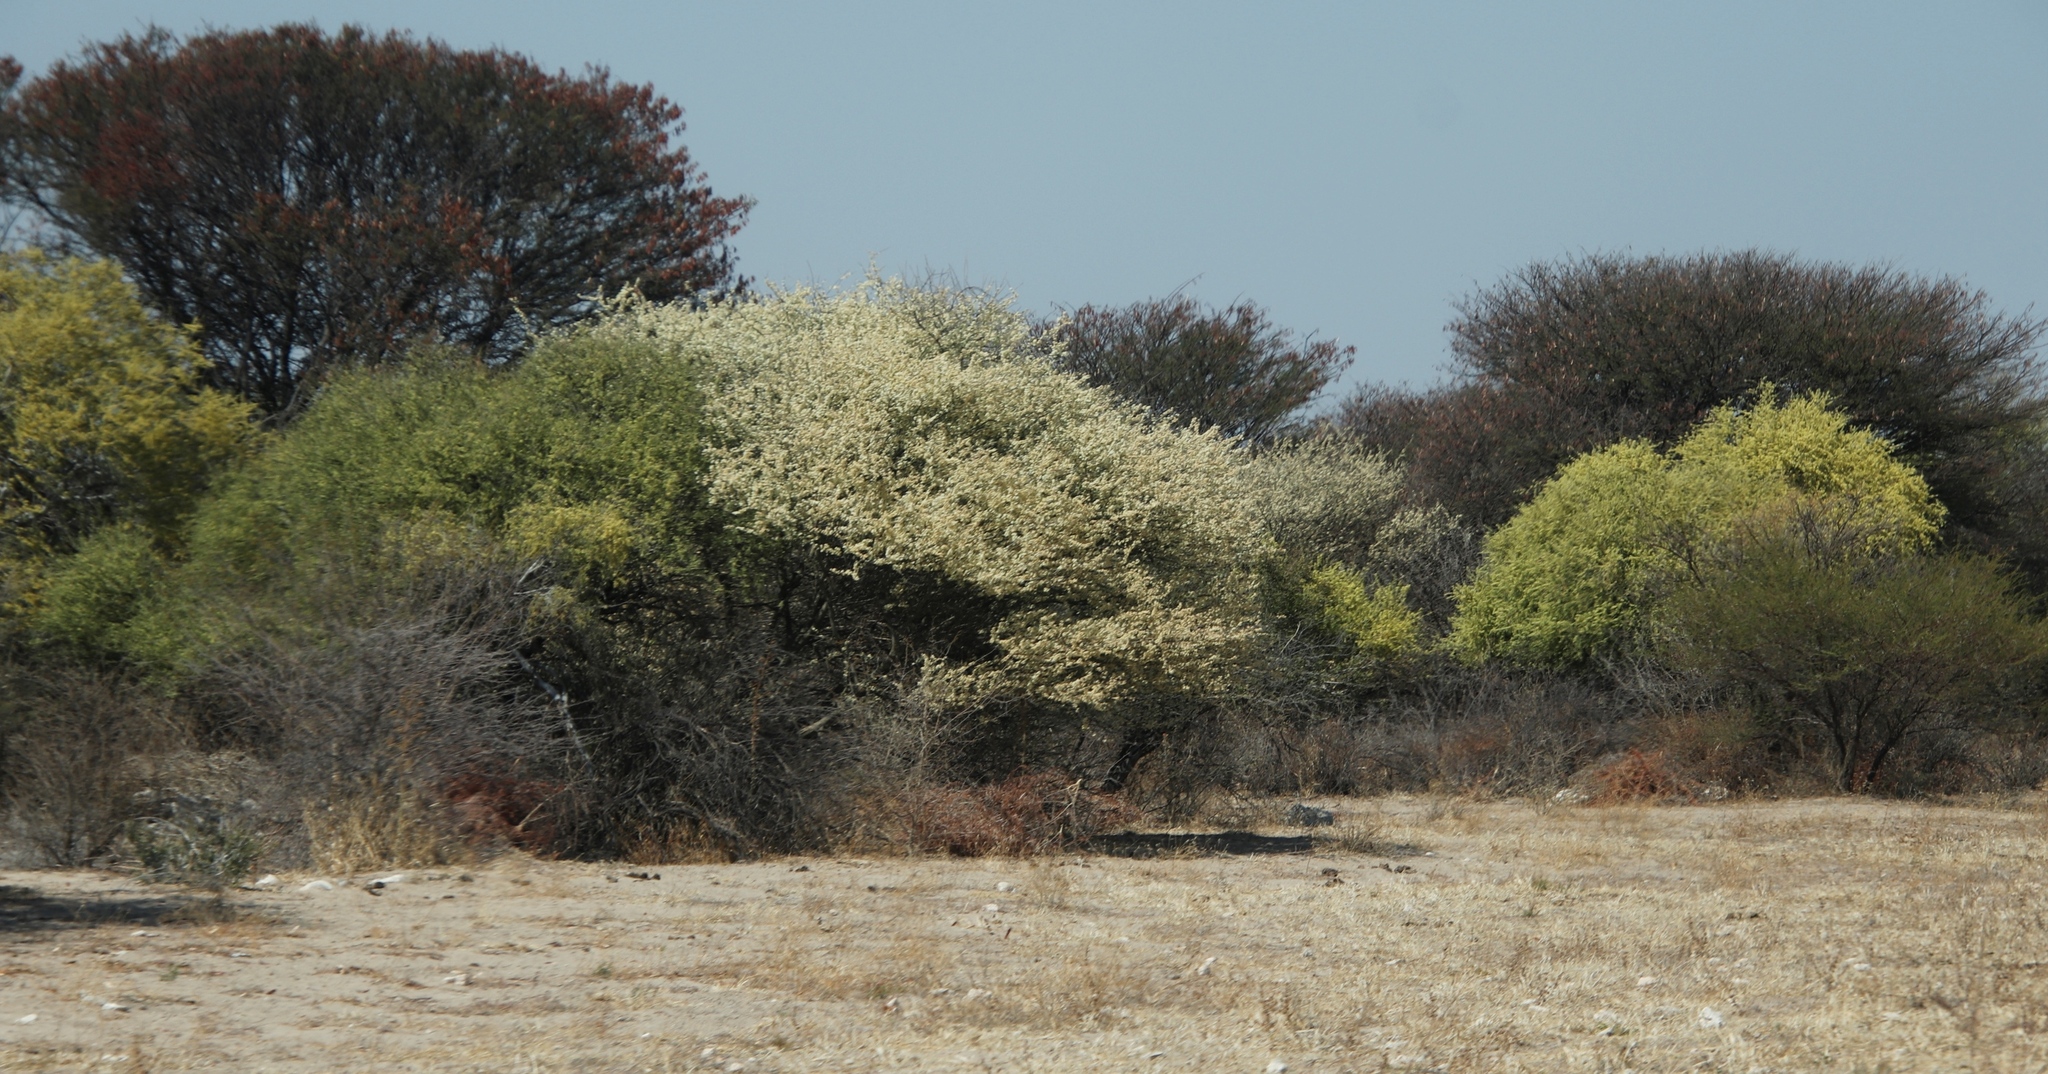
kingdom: Plantae
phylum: Tracheophyta
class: Magnoliopsida
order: Fabales
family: Fabaceae
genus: Senegalia
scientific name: Senegalia mellifera
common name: Hookthorn
